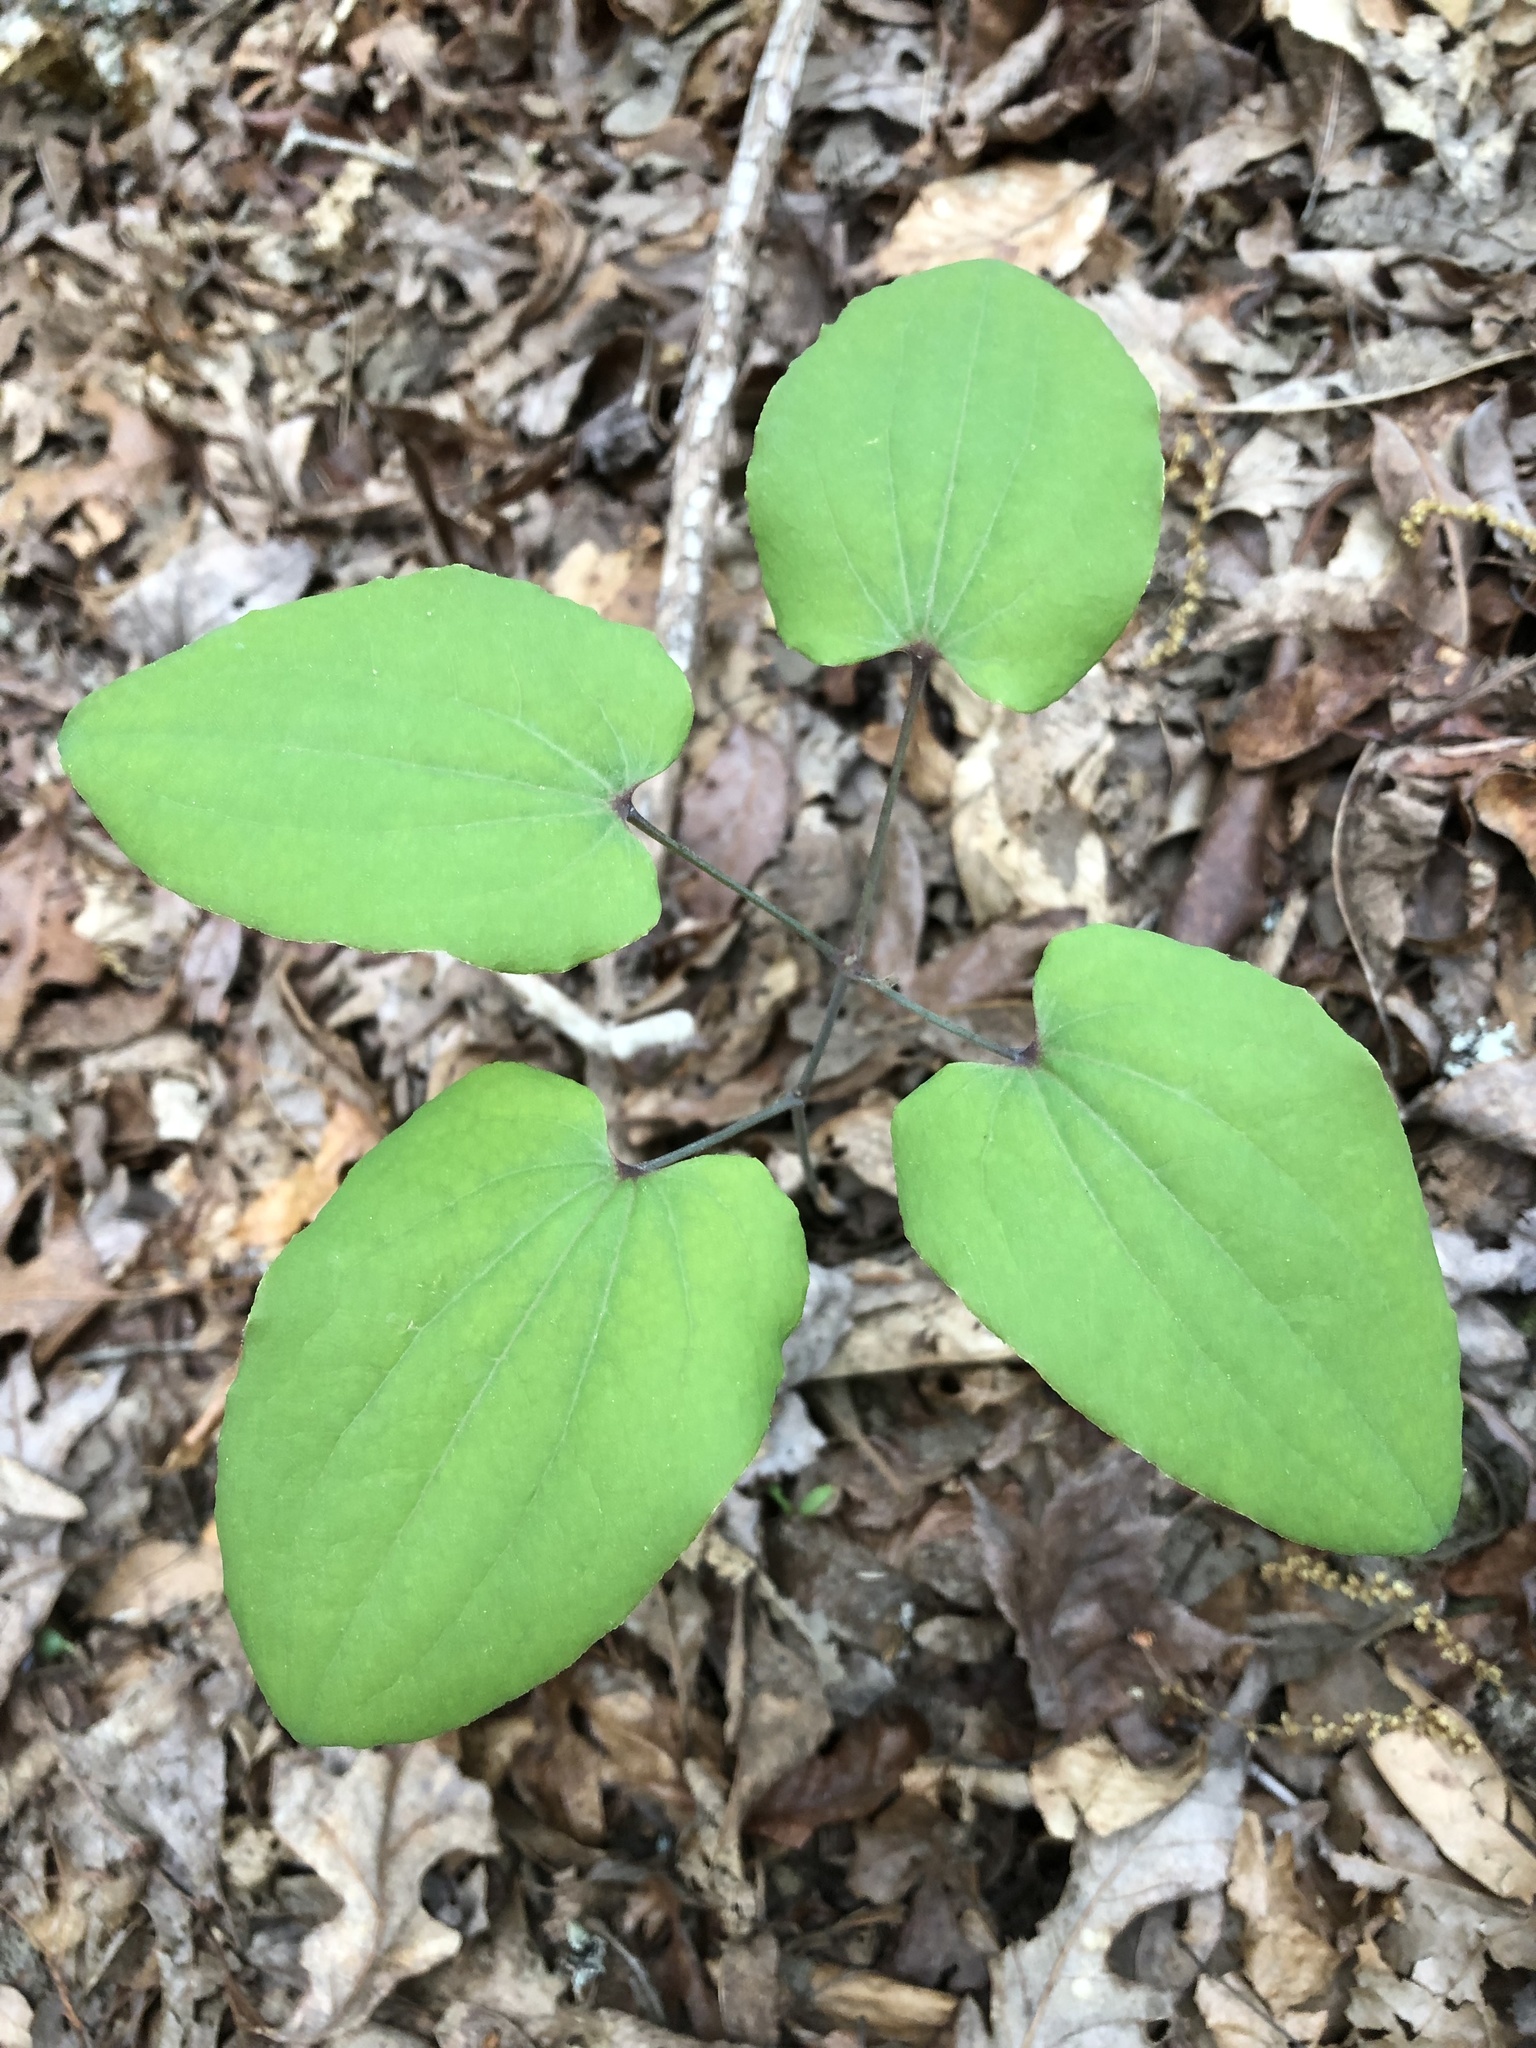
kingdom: Plantae
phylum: Tracheophyta
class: Liliopsida
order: Liliales
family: Smilacaceae
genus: Smilax
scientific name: Smilax biltmoreana
